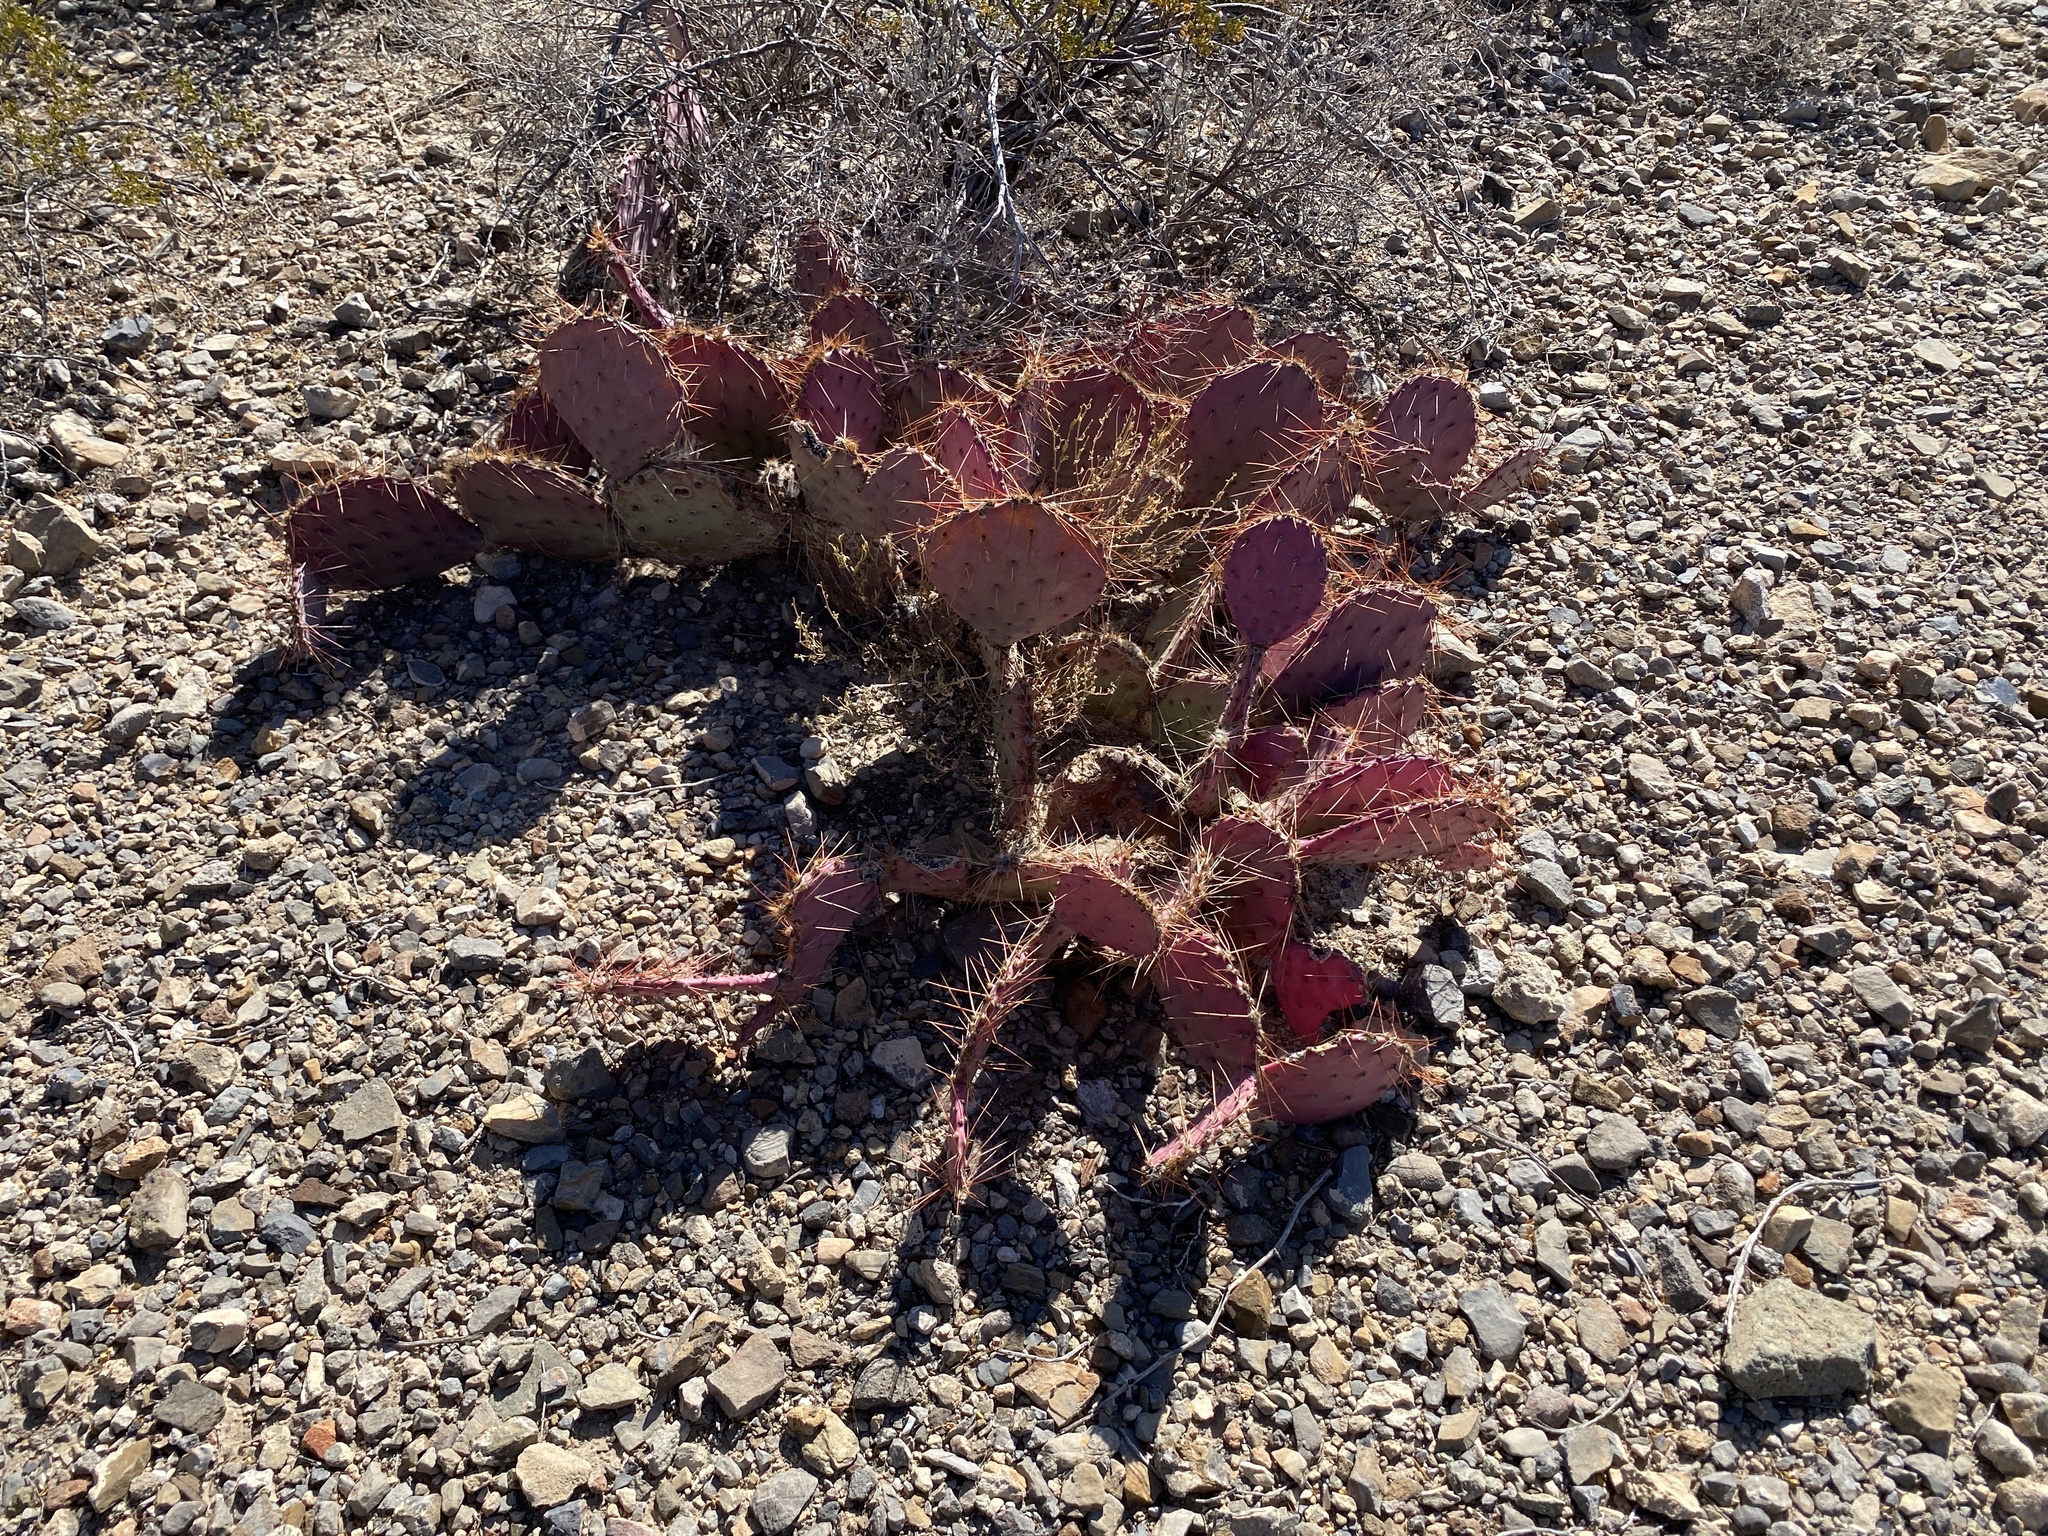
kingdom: Plantae
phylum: Tracheophyta
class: Magnoliopsida
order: Caryophyllales
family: Cactaceae
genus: Opuntia
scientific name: Opuntia macrocentra
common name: Purple prickly-pear
